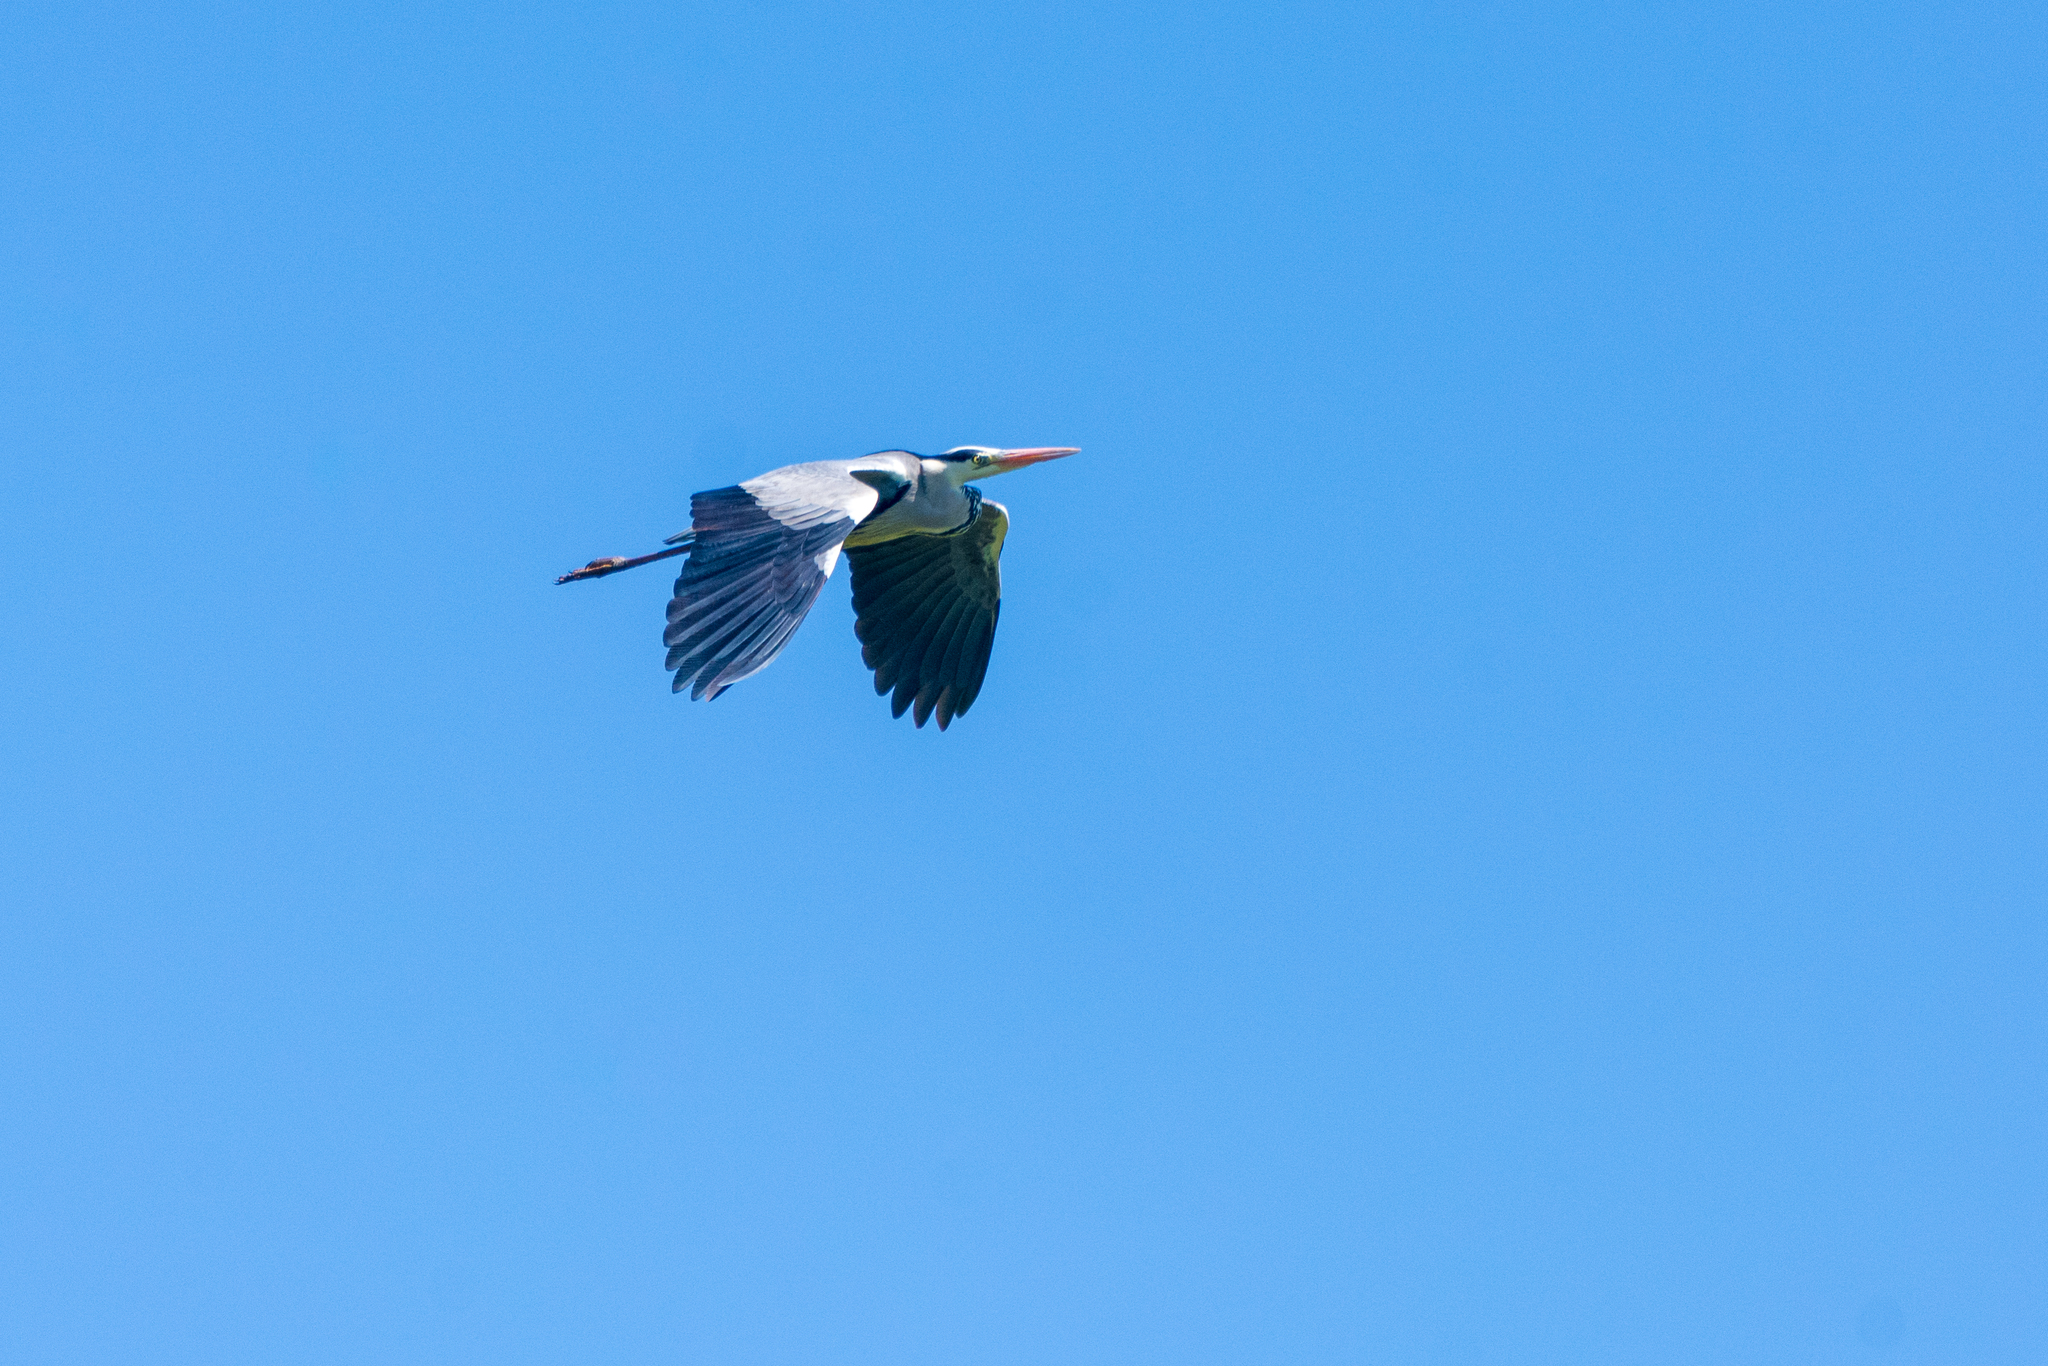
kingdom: Animalia
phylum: Chordata
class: Aves
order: Pelecaniformes
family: Ardeidae
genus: Ardea
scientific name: Ardea cinerea
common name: Grey heron
